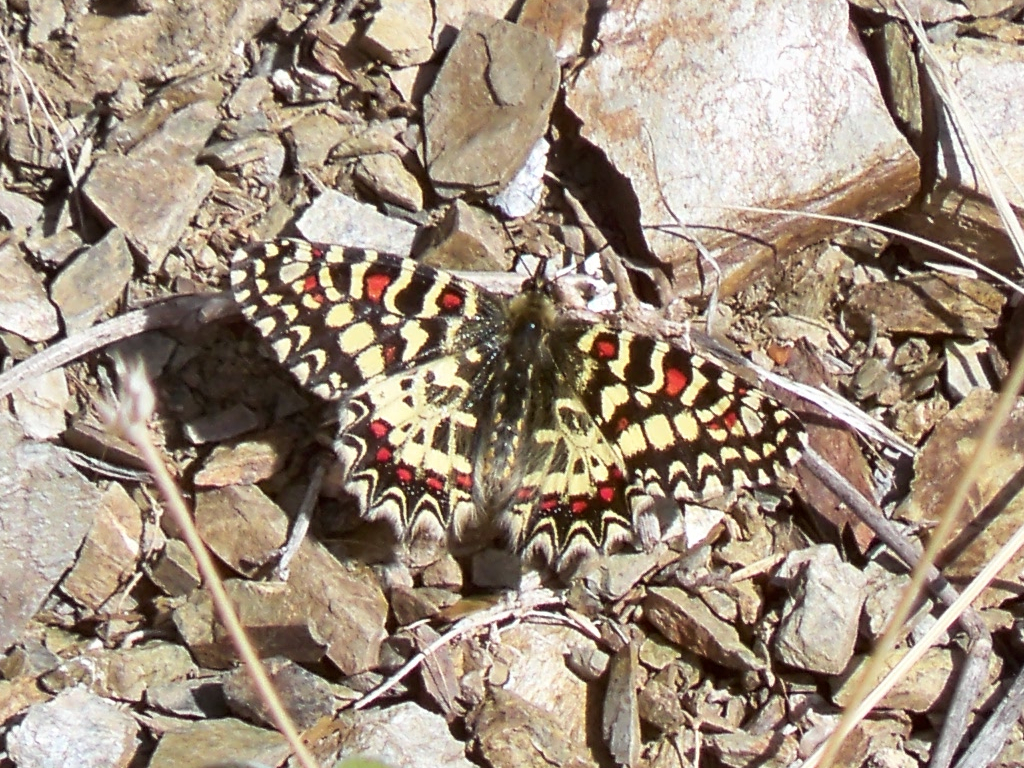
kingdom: Animalia
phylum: Arthropoda
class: Insecta
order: Lepidoptera
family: Papilionidae
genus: Zerynthia
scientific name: Zerynthia rumina
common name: Spanish festoon
